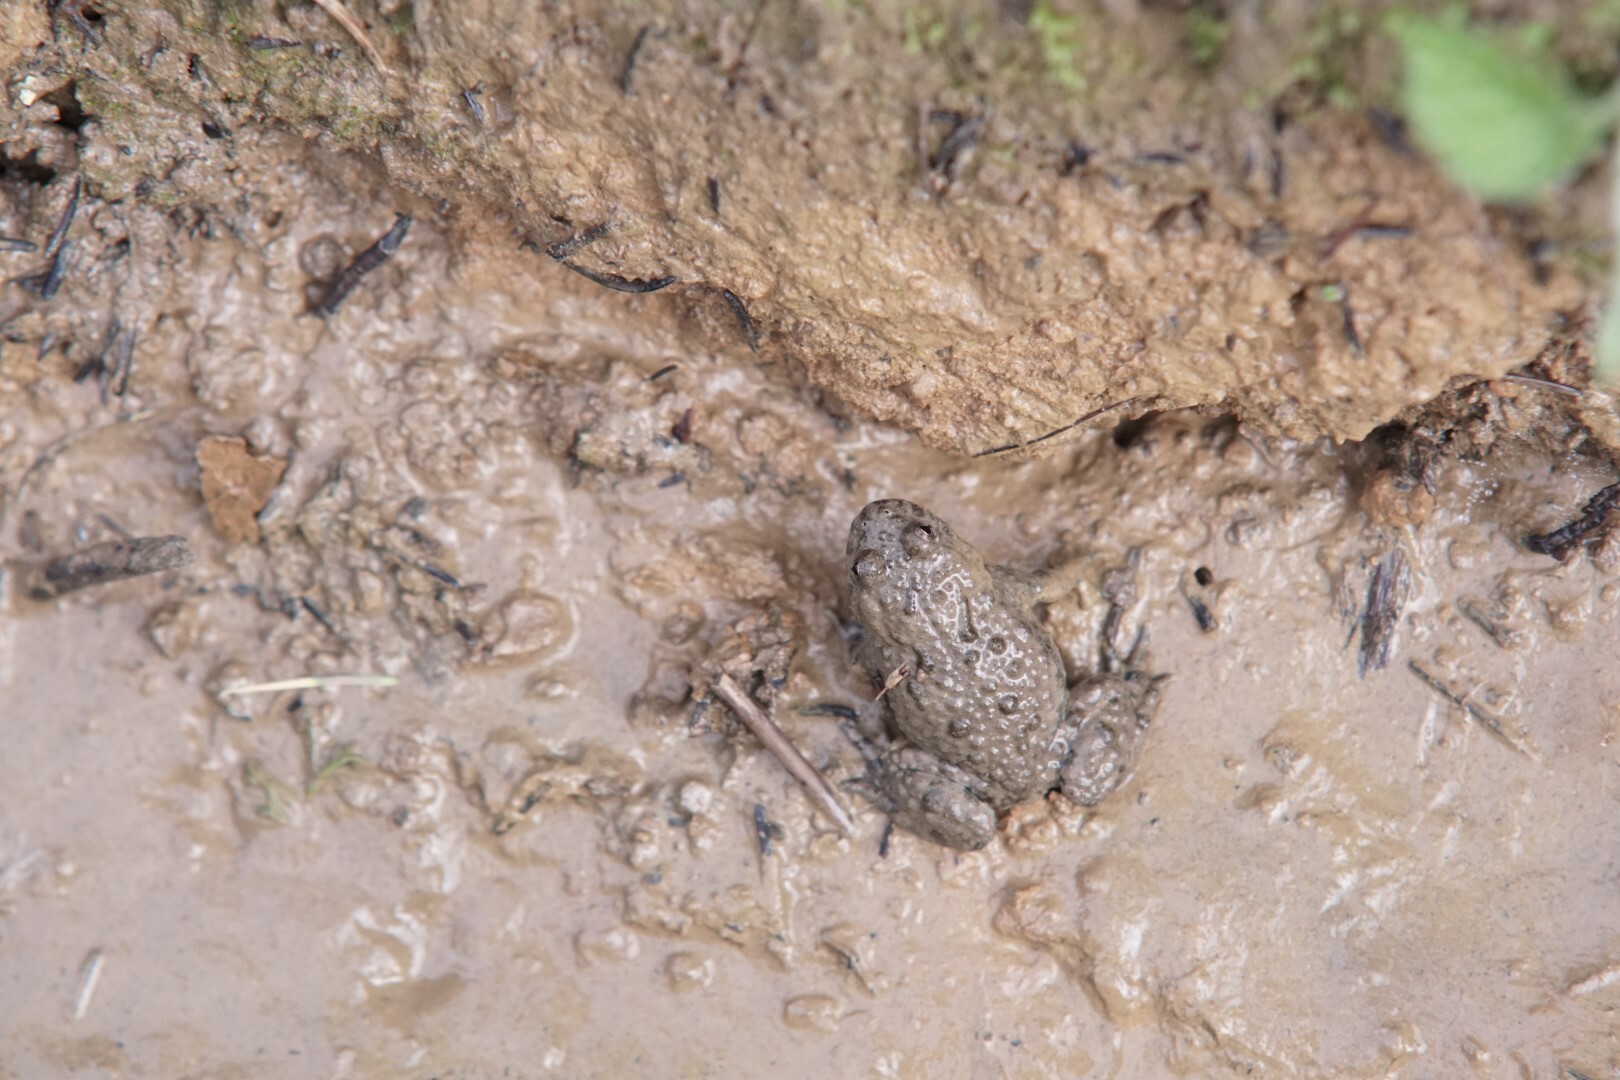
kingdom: Animalia
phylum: Chordata
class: Amphibia
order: Anura
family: Bombinatoridae
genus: Bombina
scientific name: Bombina variegata
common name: Yellow-bellied toad
